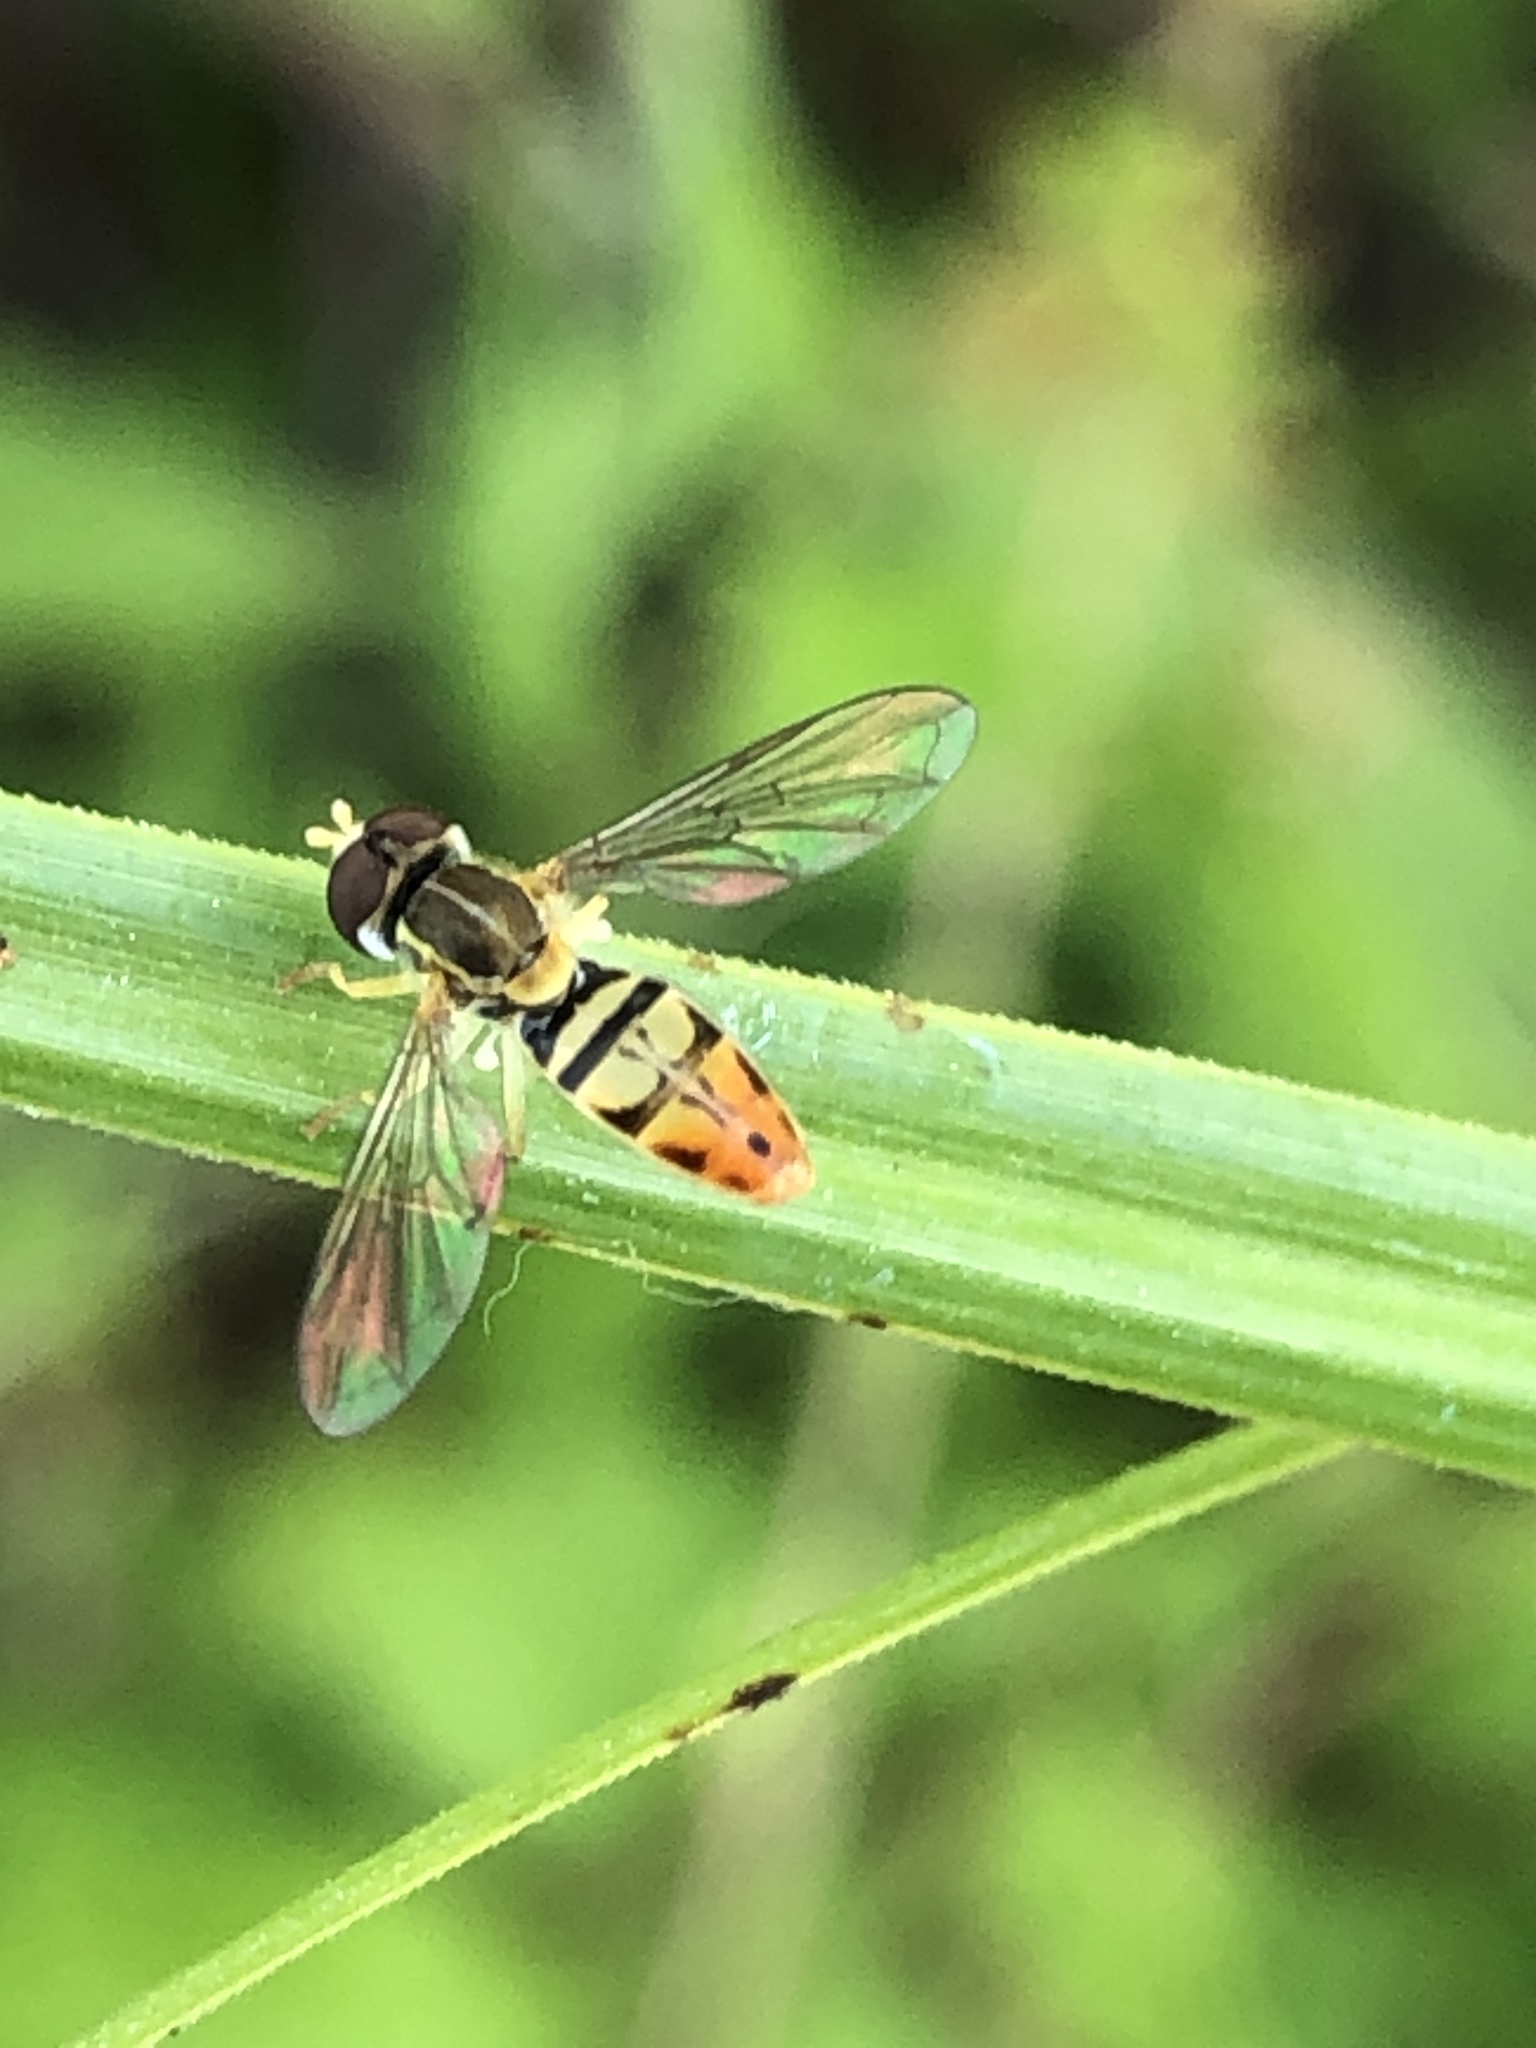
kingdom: Animalia
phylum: Arthropoda
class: Insecta
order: Diptera
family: Syrphidae
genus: Toxomerus
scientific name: Toxomerus marginatus
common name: Syrphid fly
